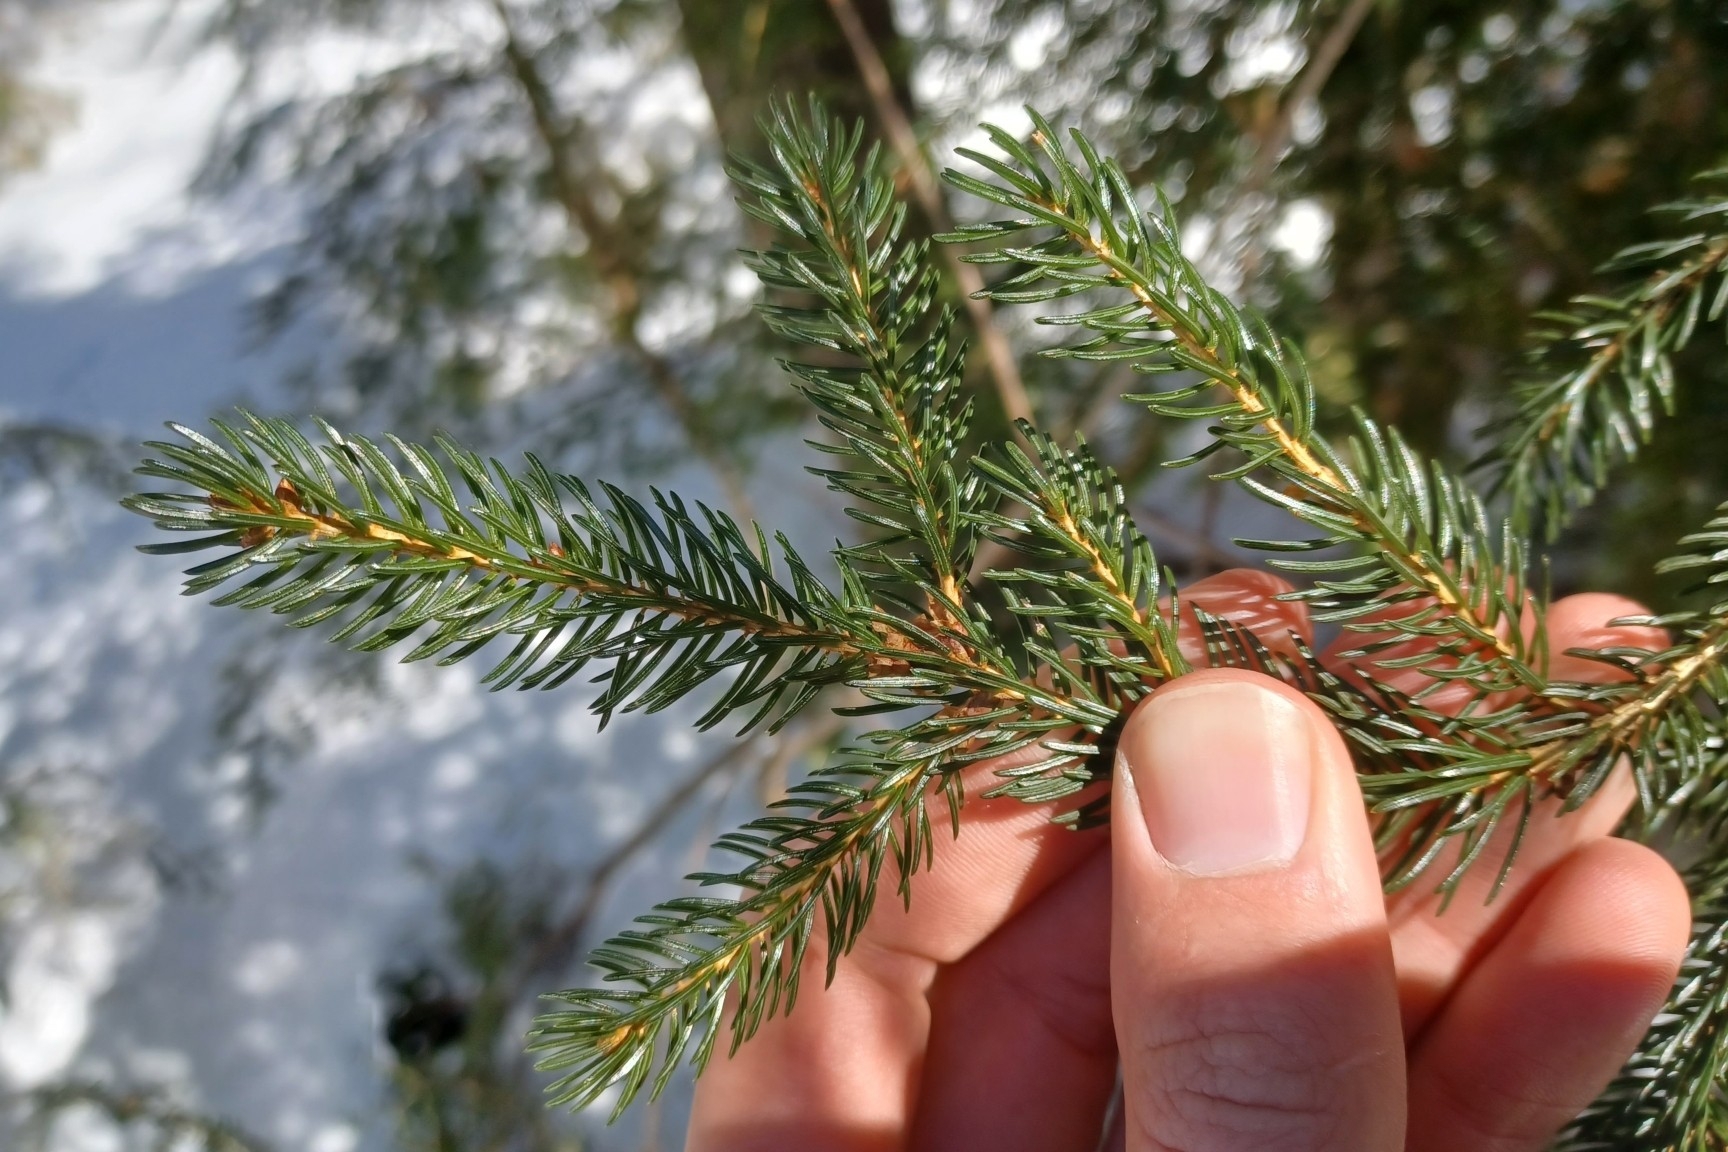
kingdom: Plantae
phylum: Tracheophyta
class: Pinopsida
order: Pinales
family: Pinaceae
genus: Picea
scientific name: Picea rubens
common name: Red spruce
